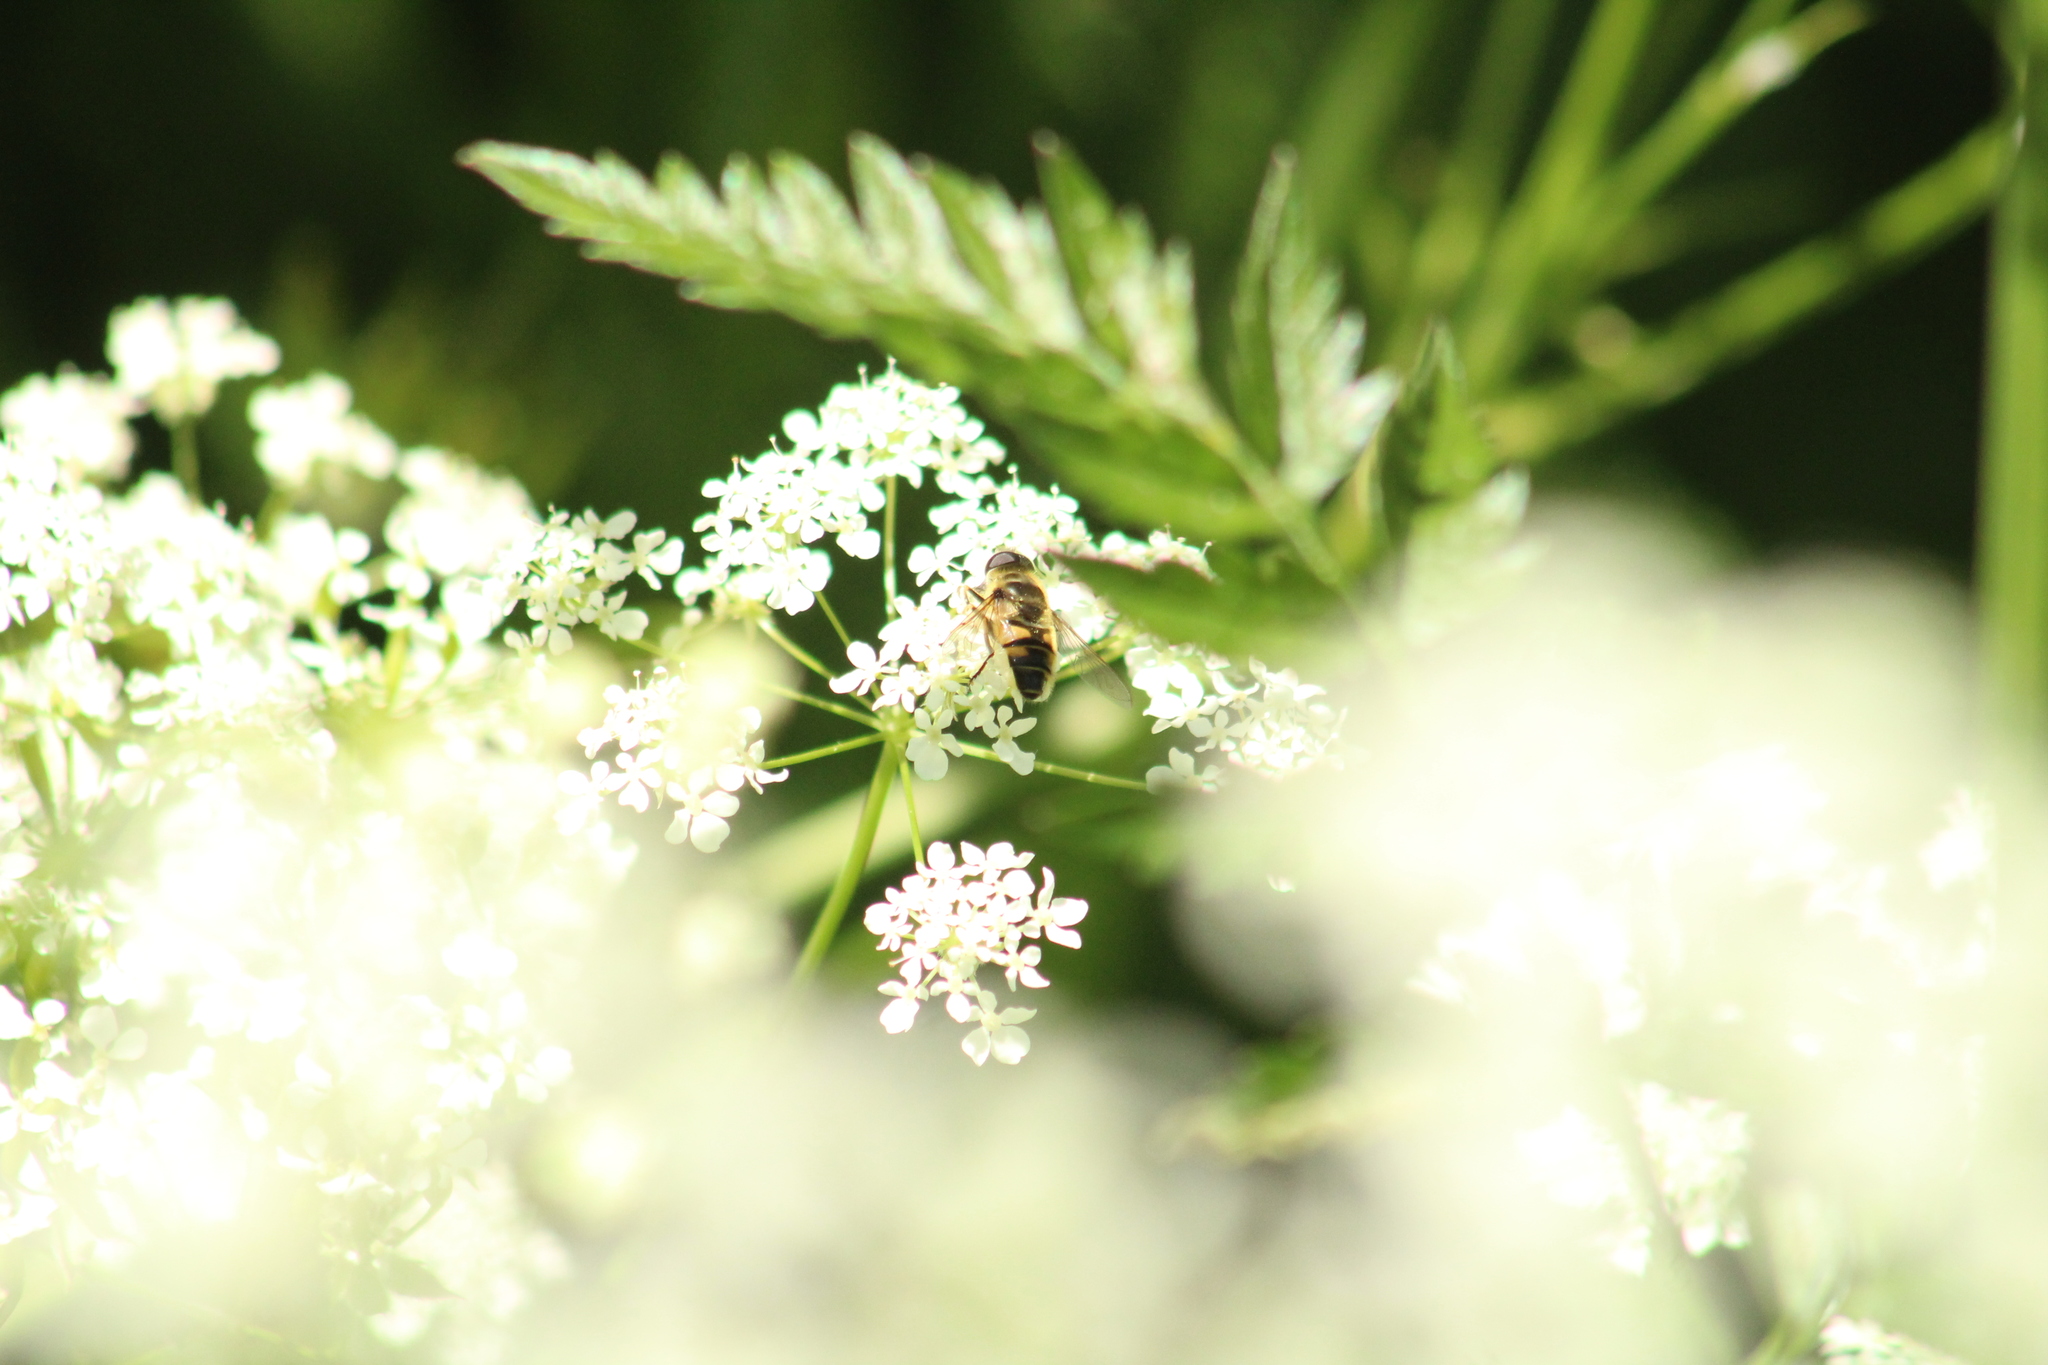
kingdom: Animalia
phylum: Arthropoda
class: Insecta
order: Diptera
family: Syrphidae
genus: Myathropa
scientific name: Myathropa florea
